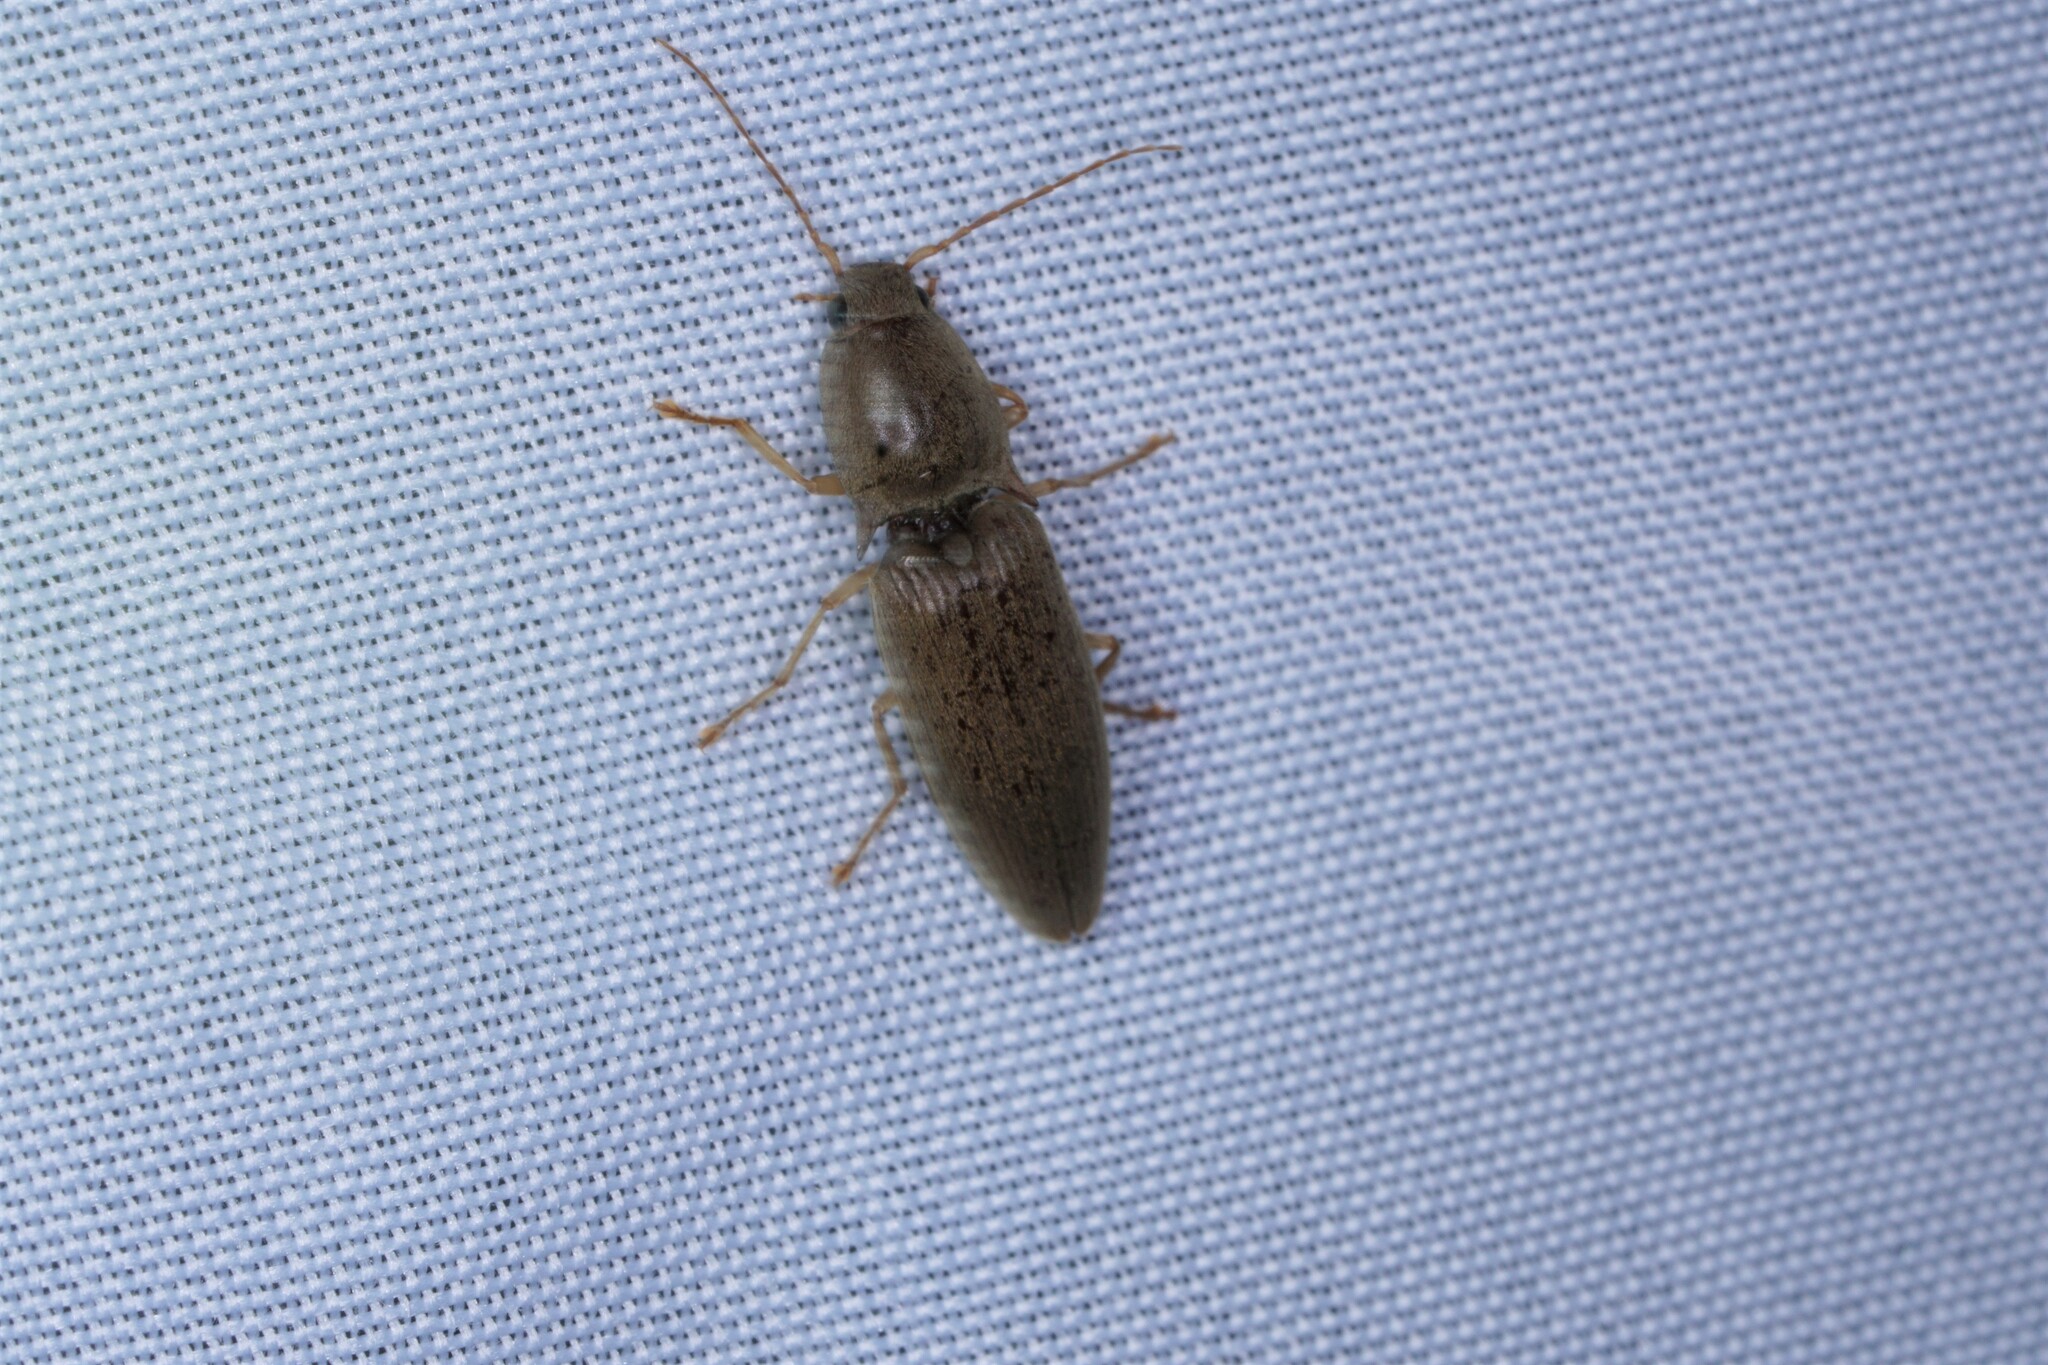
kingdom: Animalia
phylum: Arthropoda
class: Insecta
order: Coleoptera
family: Elateridae
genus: Monocrepidius
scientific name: Monocrepidius lividus
